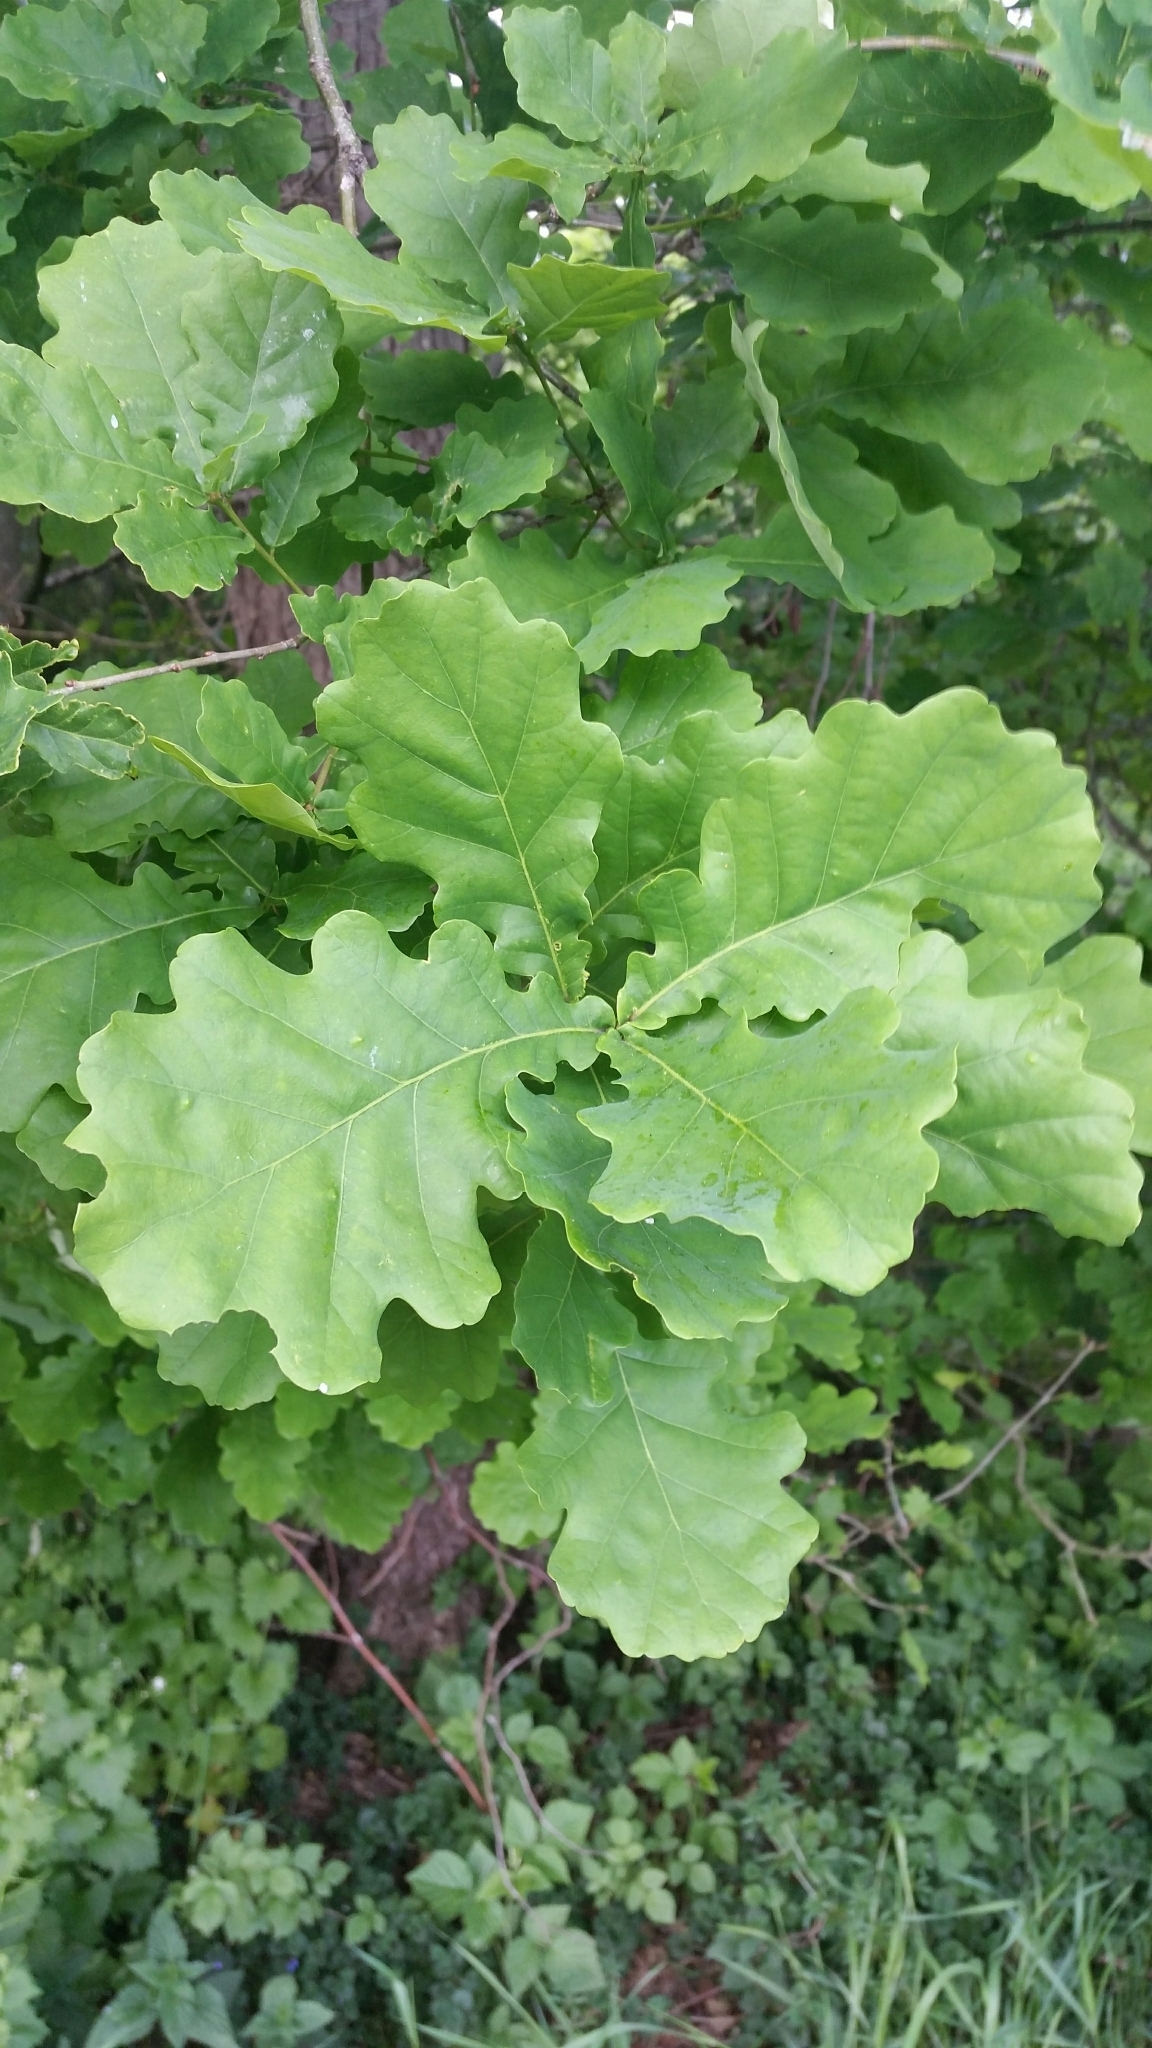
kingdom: Plantae
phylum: Tracheophyta
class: Magnoliopsida
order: Fagales
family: Fagaceae
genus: Quercus
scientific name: Quercus robur
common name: Pedunculate oak
